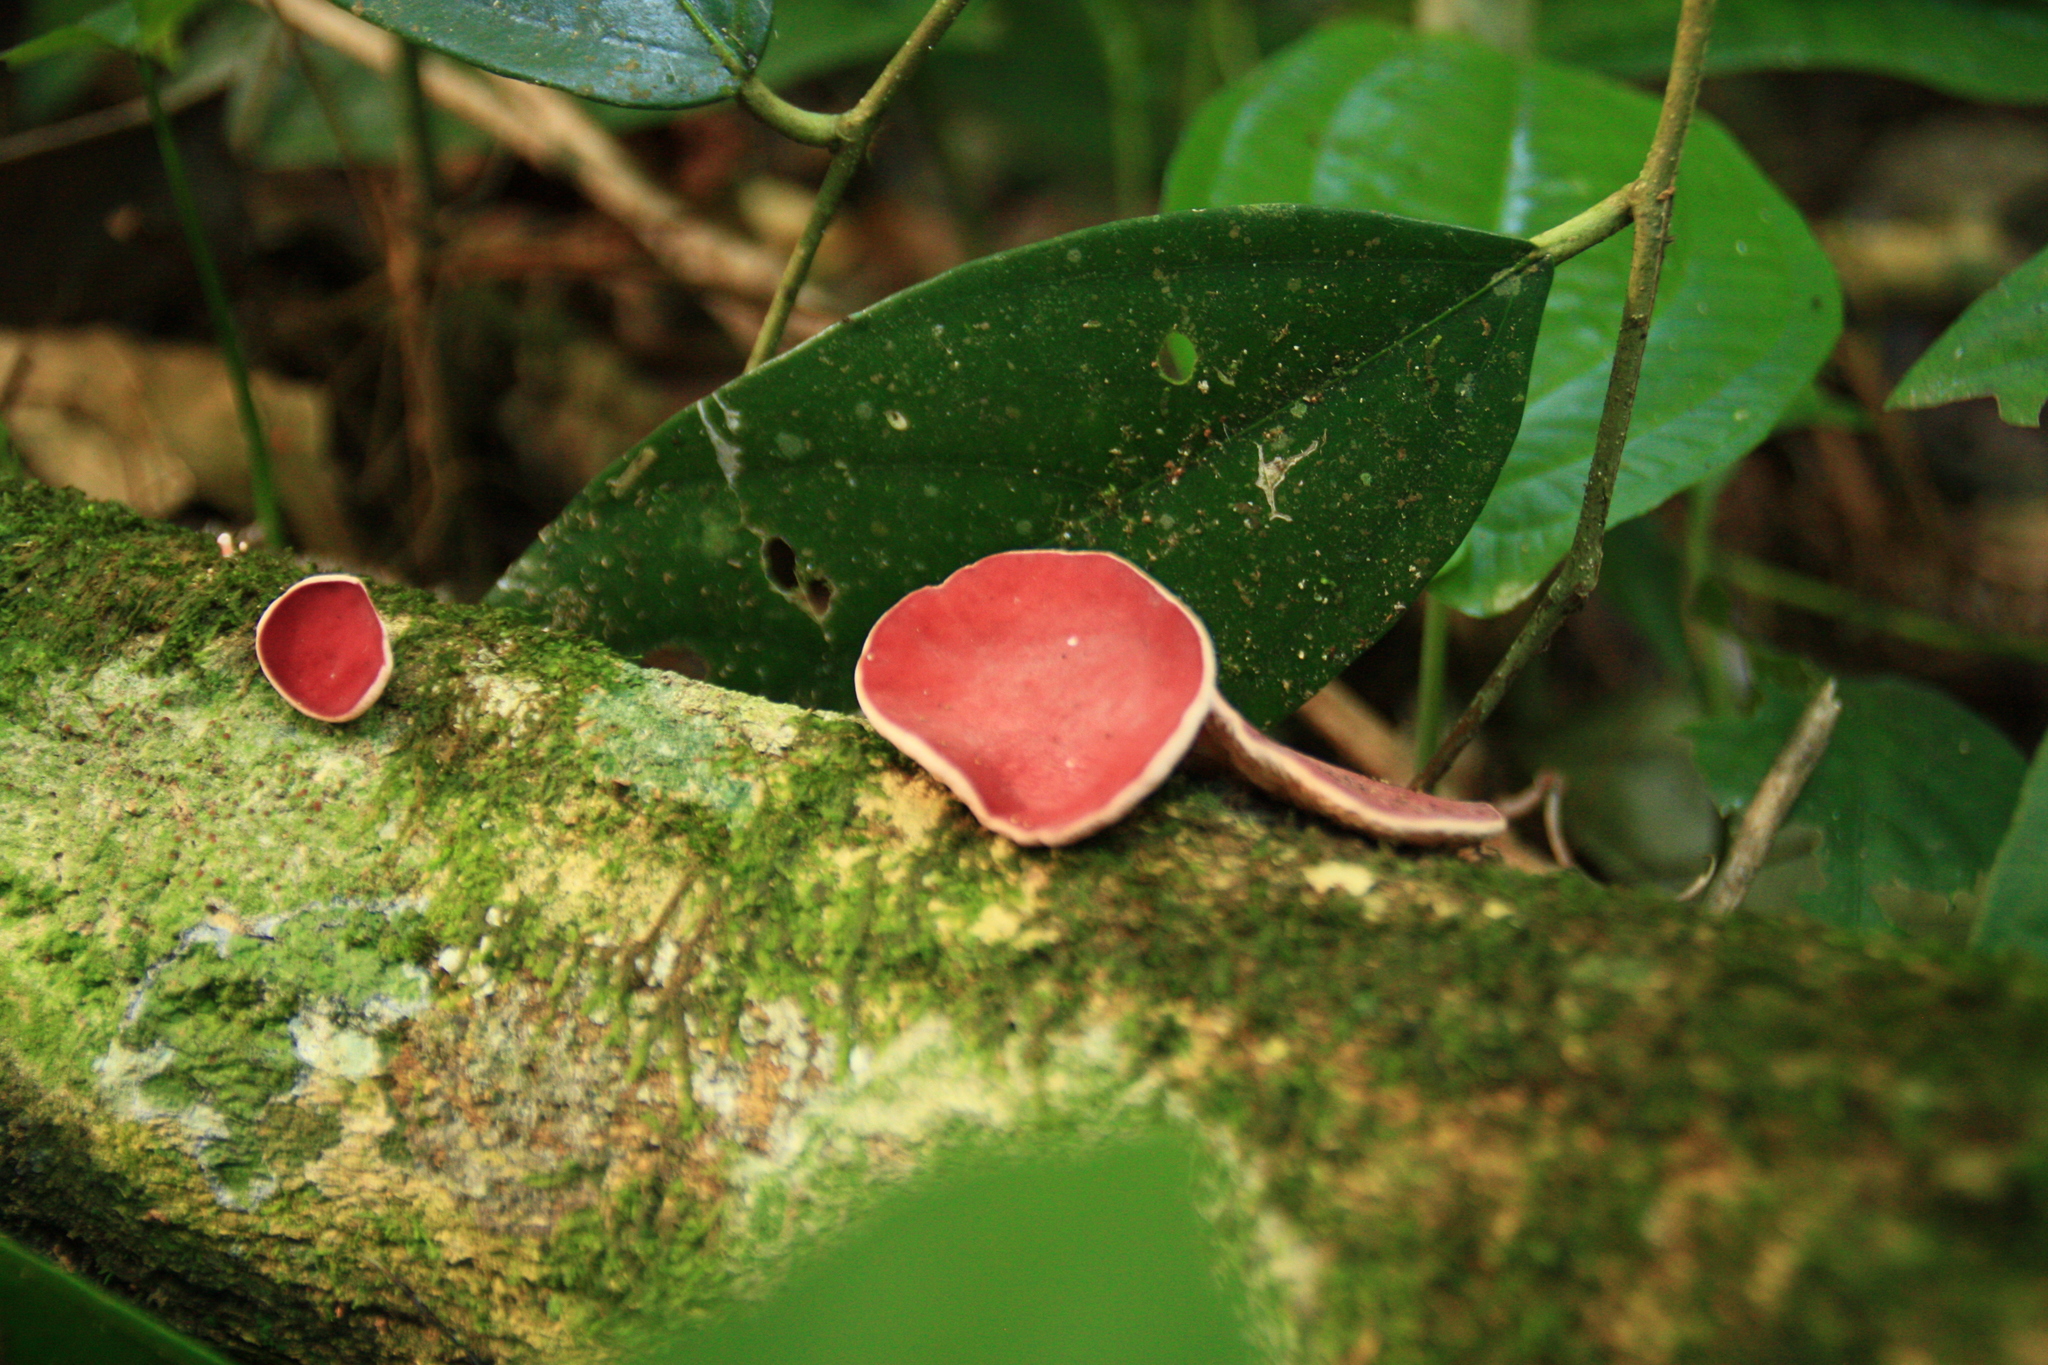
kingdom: Fungi
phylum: Ascomycota
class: Pezizomycetes
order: Pezizales
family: Sarcoscyphaceae
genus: Phillipsia
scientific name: Phillipsia domingensis
